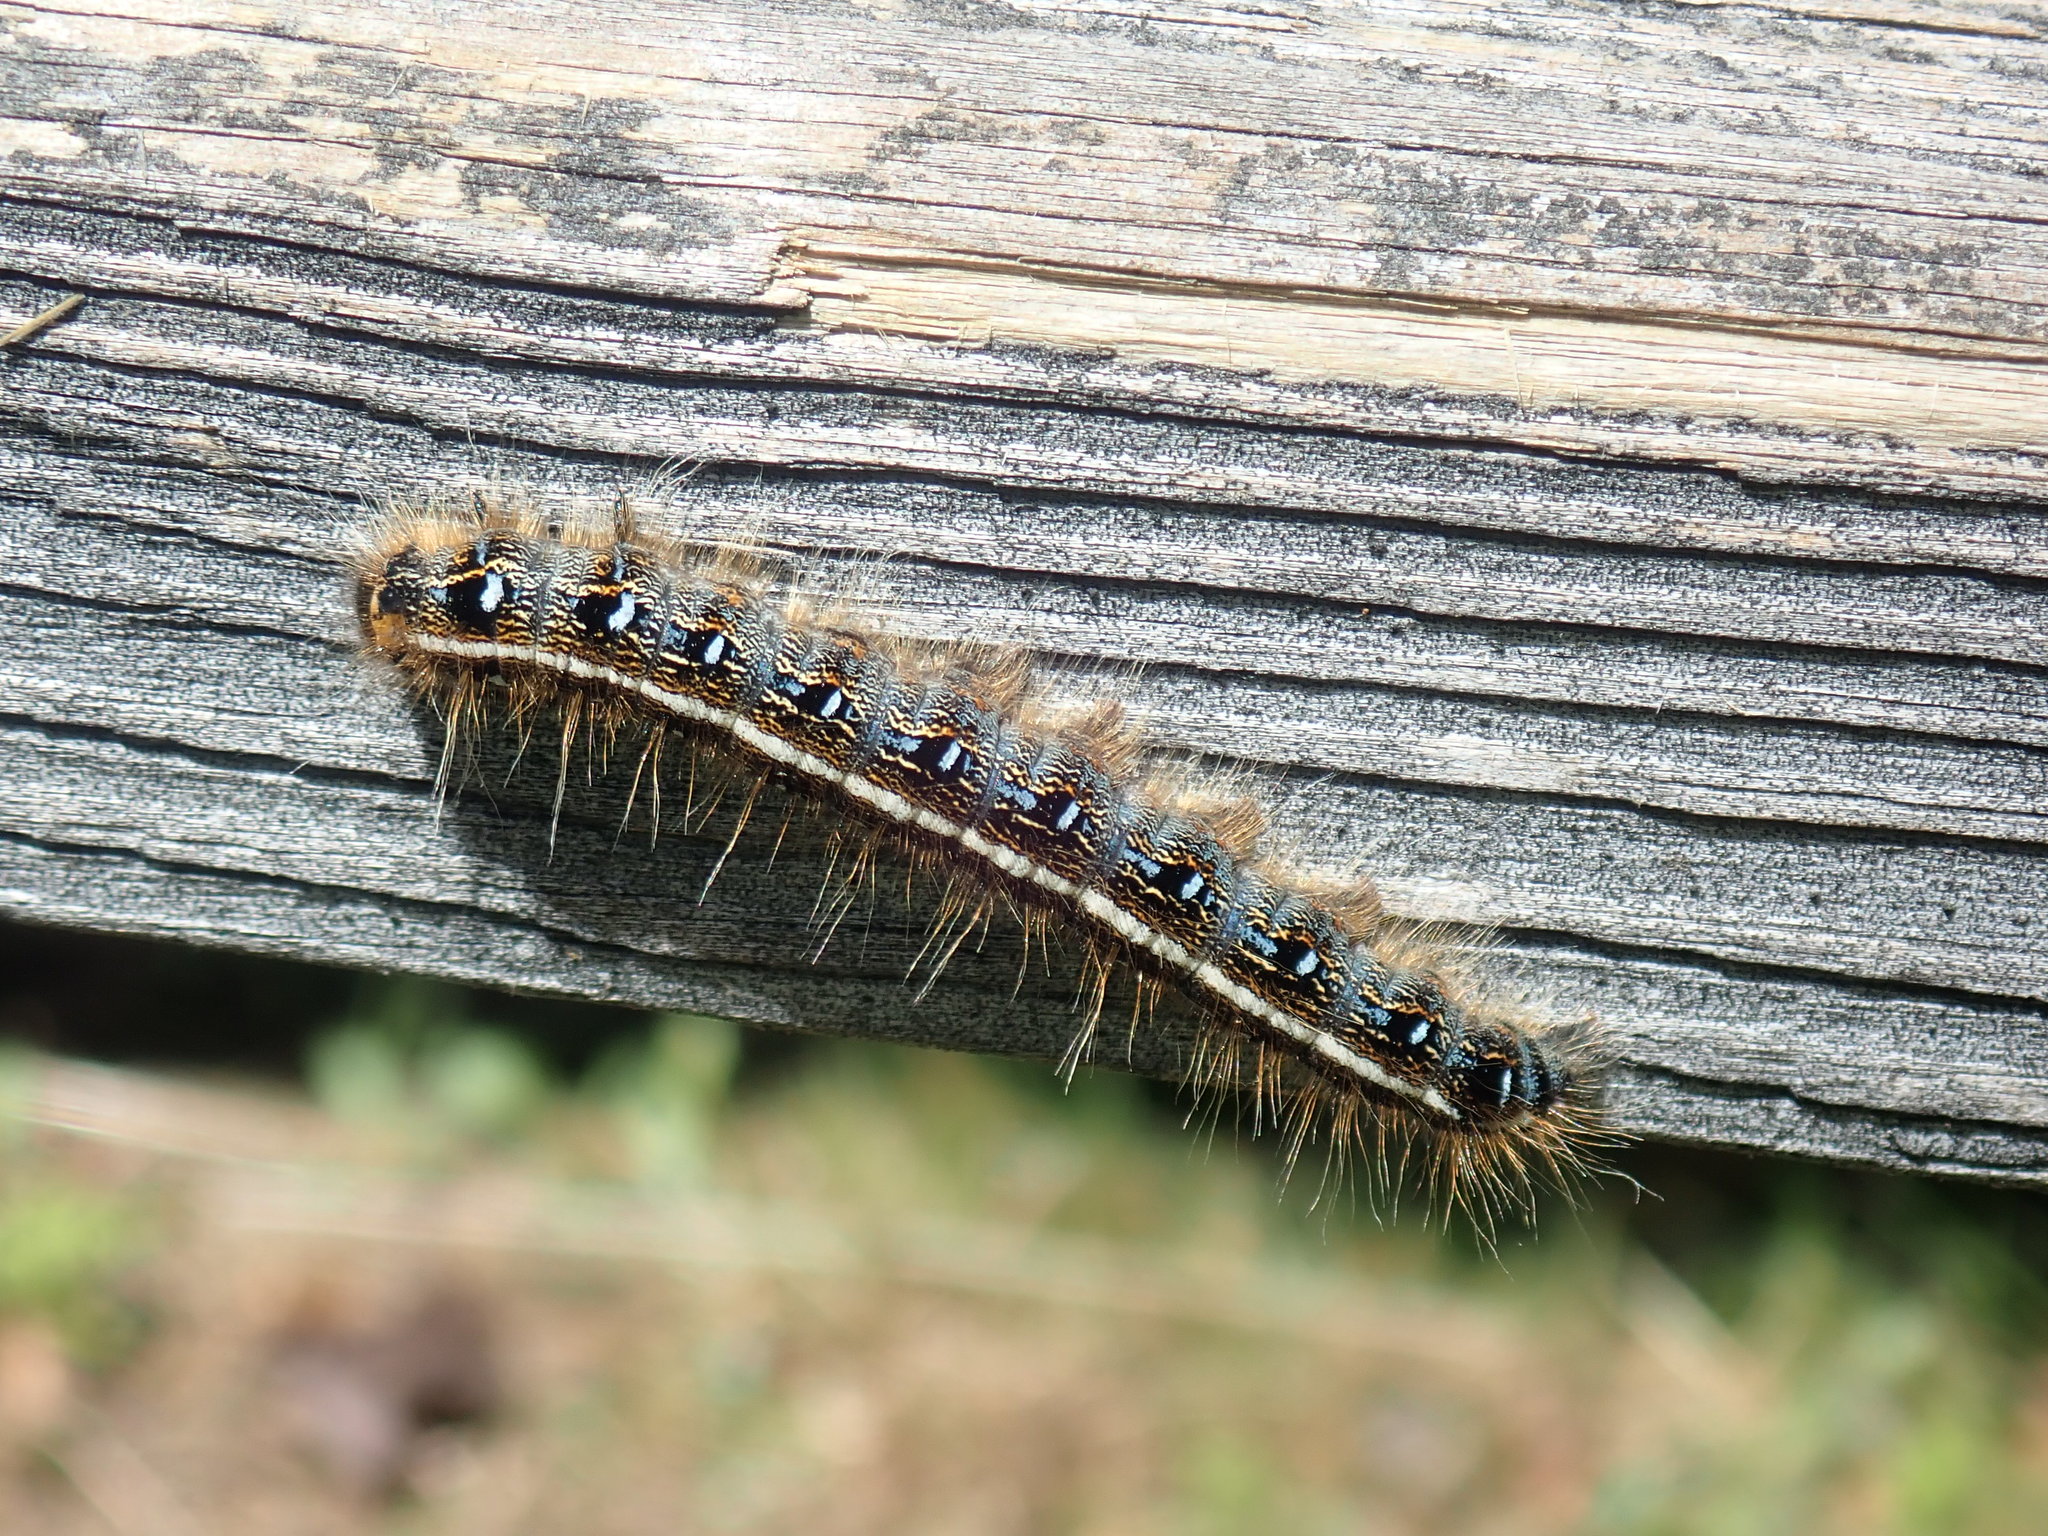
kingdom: Animalia
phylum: Arthropoda
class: Insecta
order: Lepidoptera
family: Lasiocampidae
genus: Malacosoma
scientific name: Malacosoma americana
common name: Eastern tent caterpillar moth
